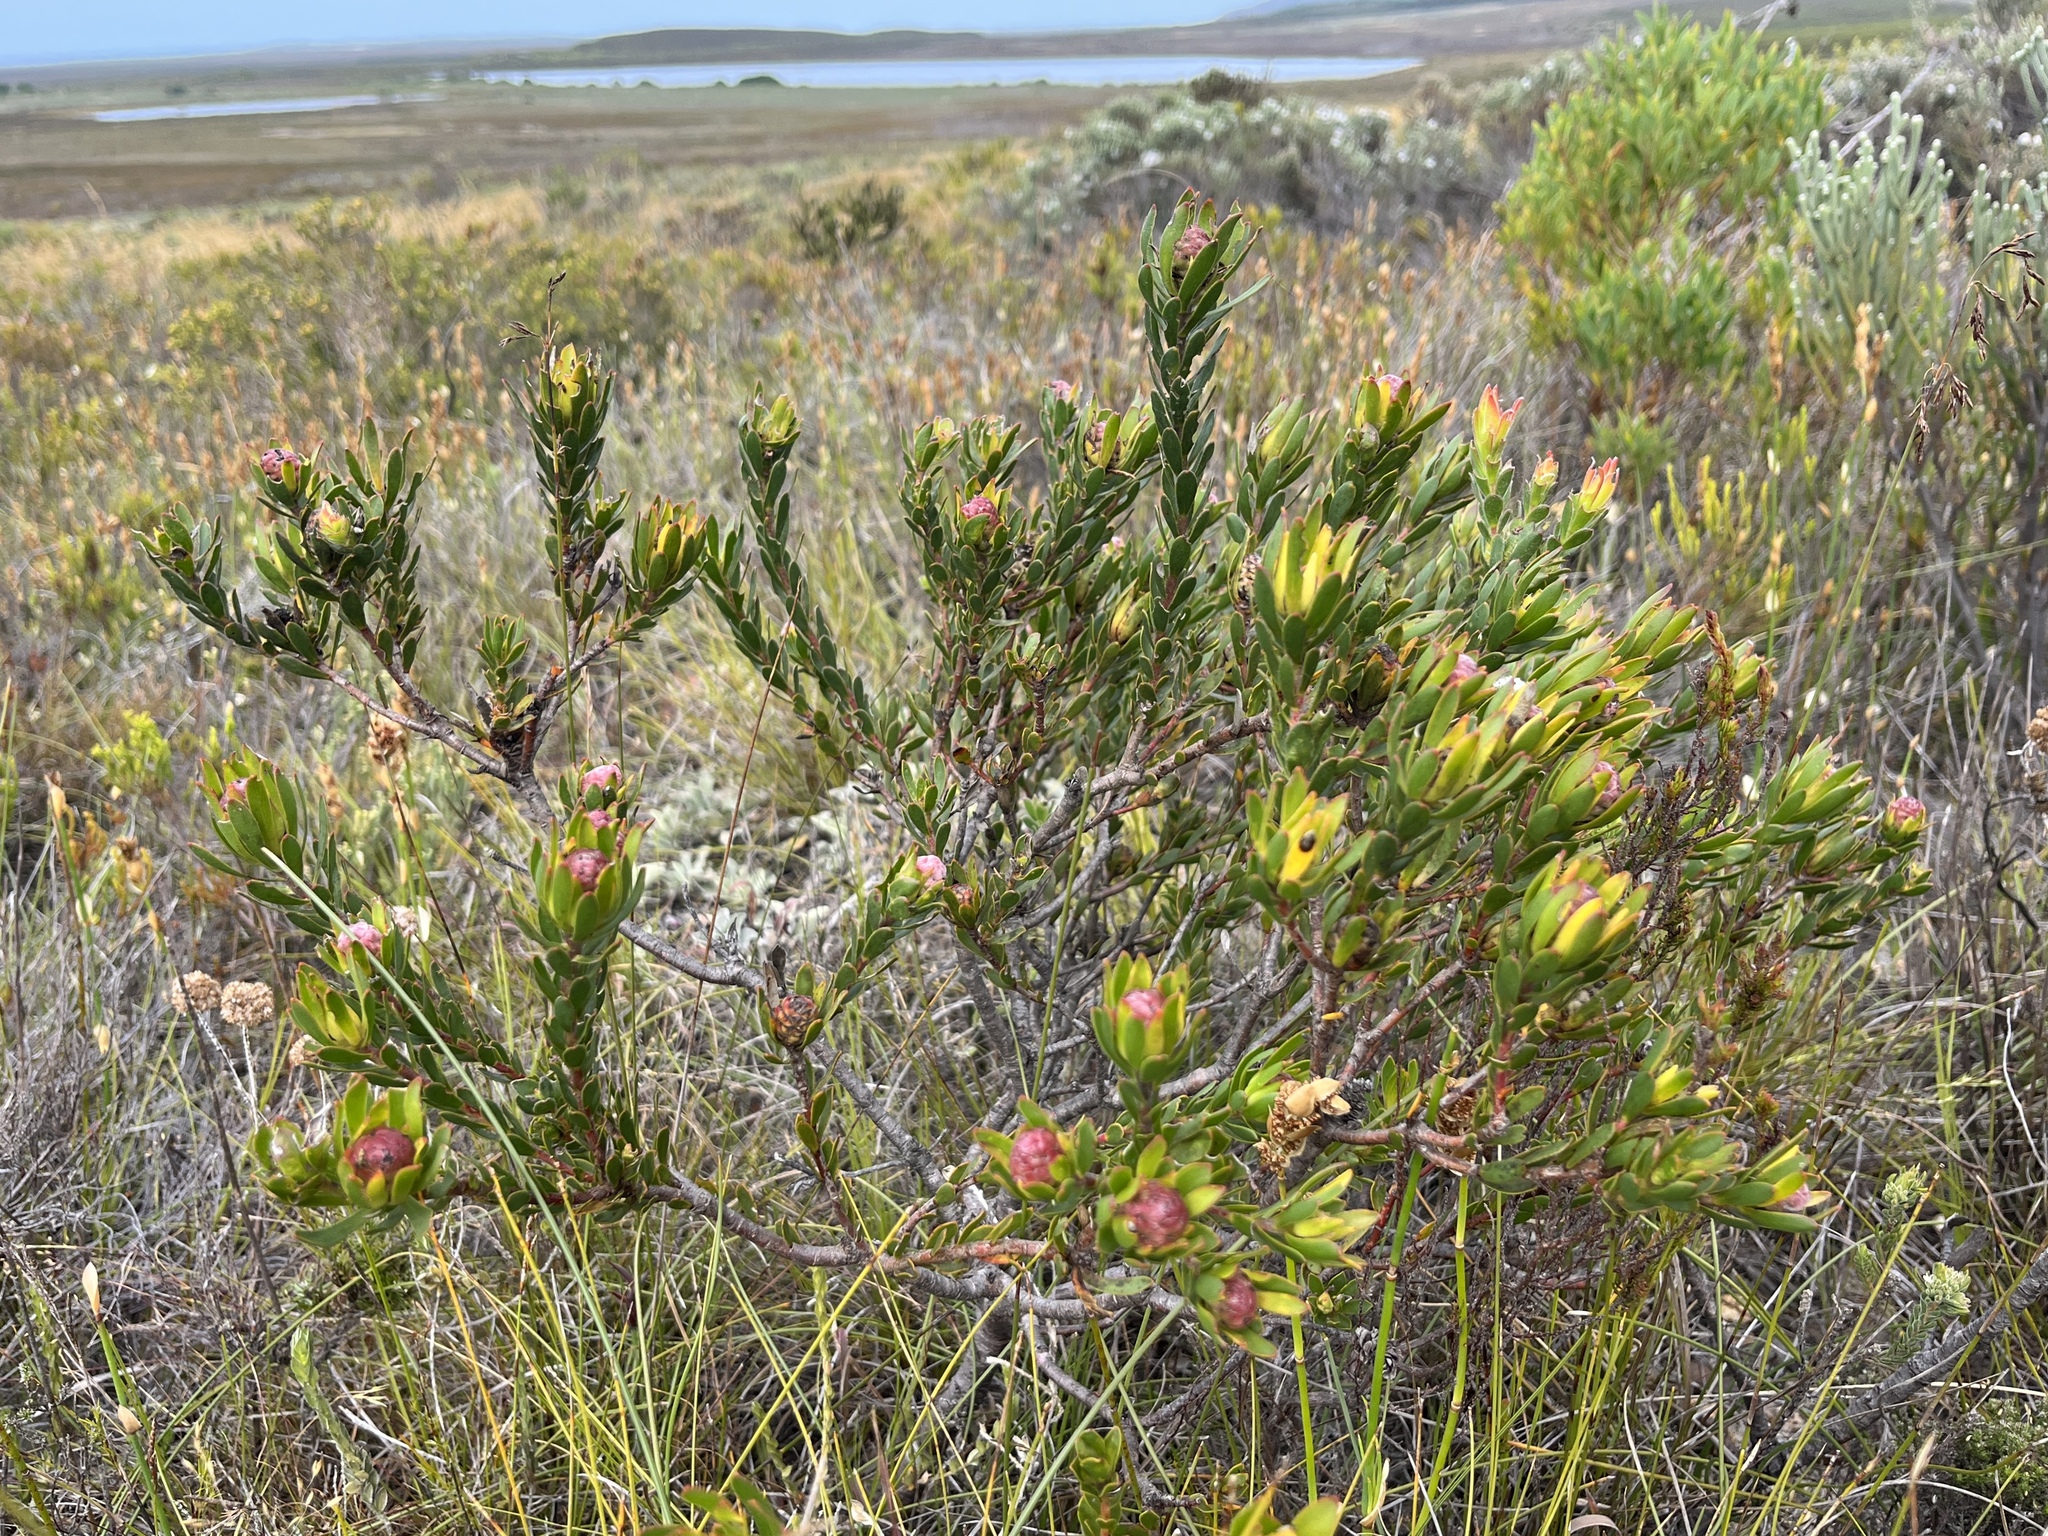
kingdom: Plantae
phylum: Tracheophyta
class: Magnoliopsida
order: Proteales
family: Proteaceae
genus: Leucadendron
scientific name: Leucadendron stelligerum
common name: Agulhas conebush
